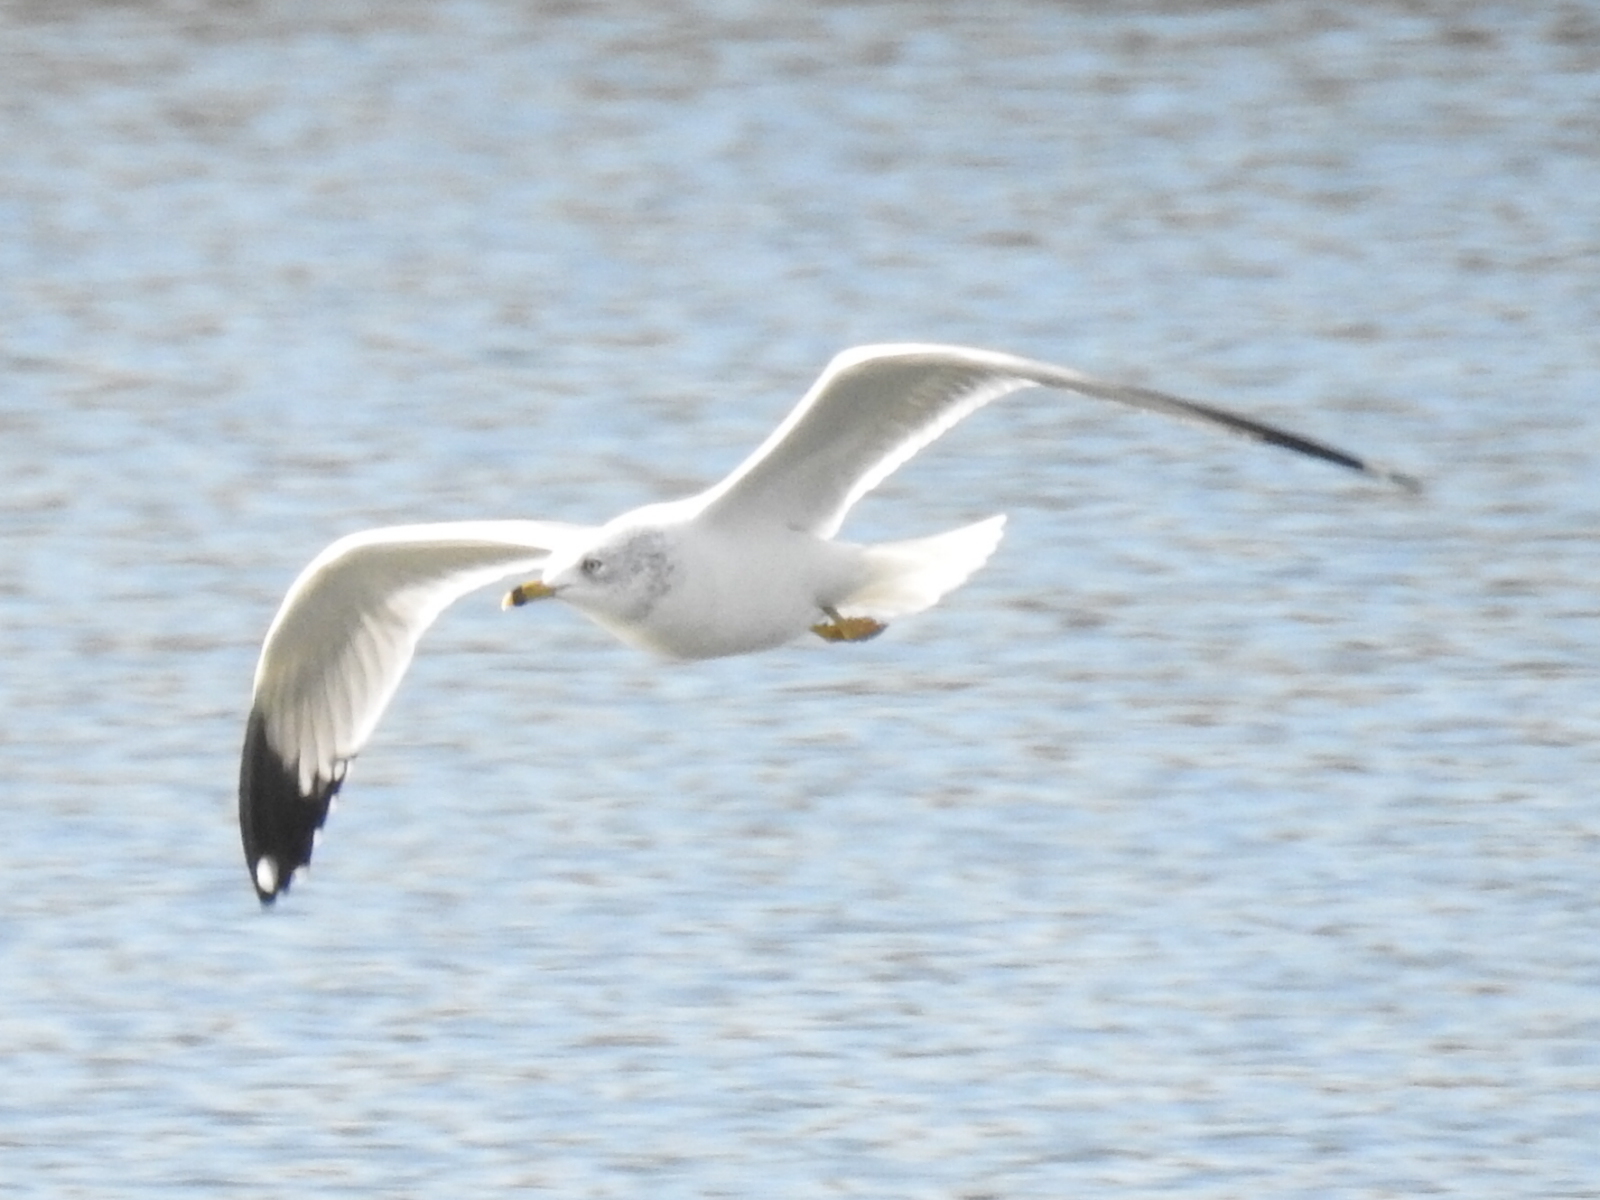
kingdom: Animalia
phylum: Chordata
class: Aves
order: Charadriiformes
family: Laridae
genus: Larus
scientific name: Larus delawarensis
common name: Ring-billed gull
